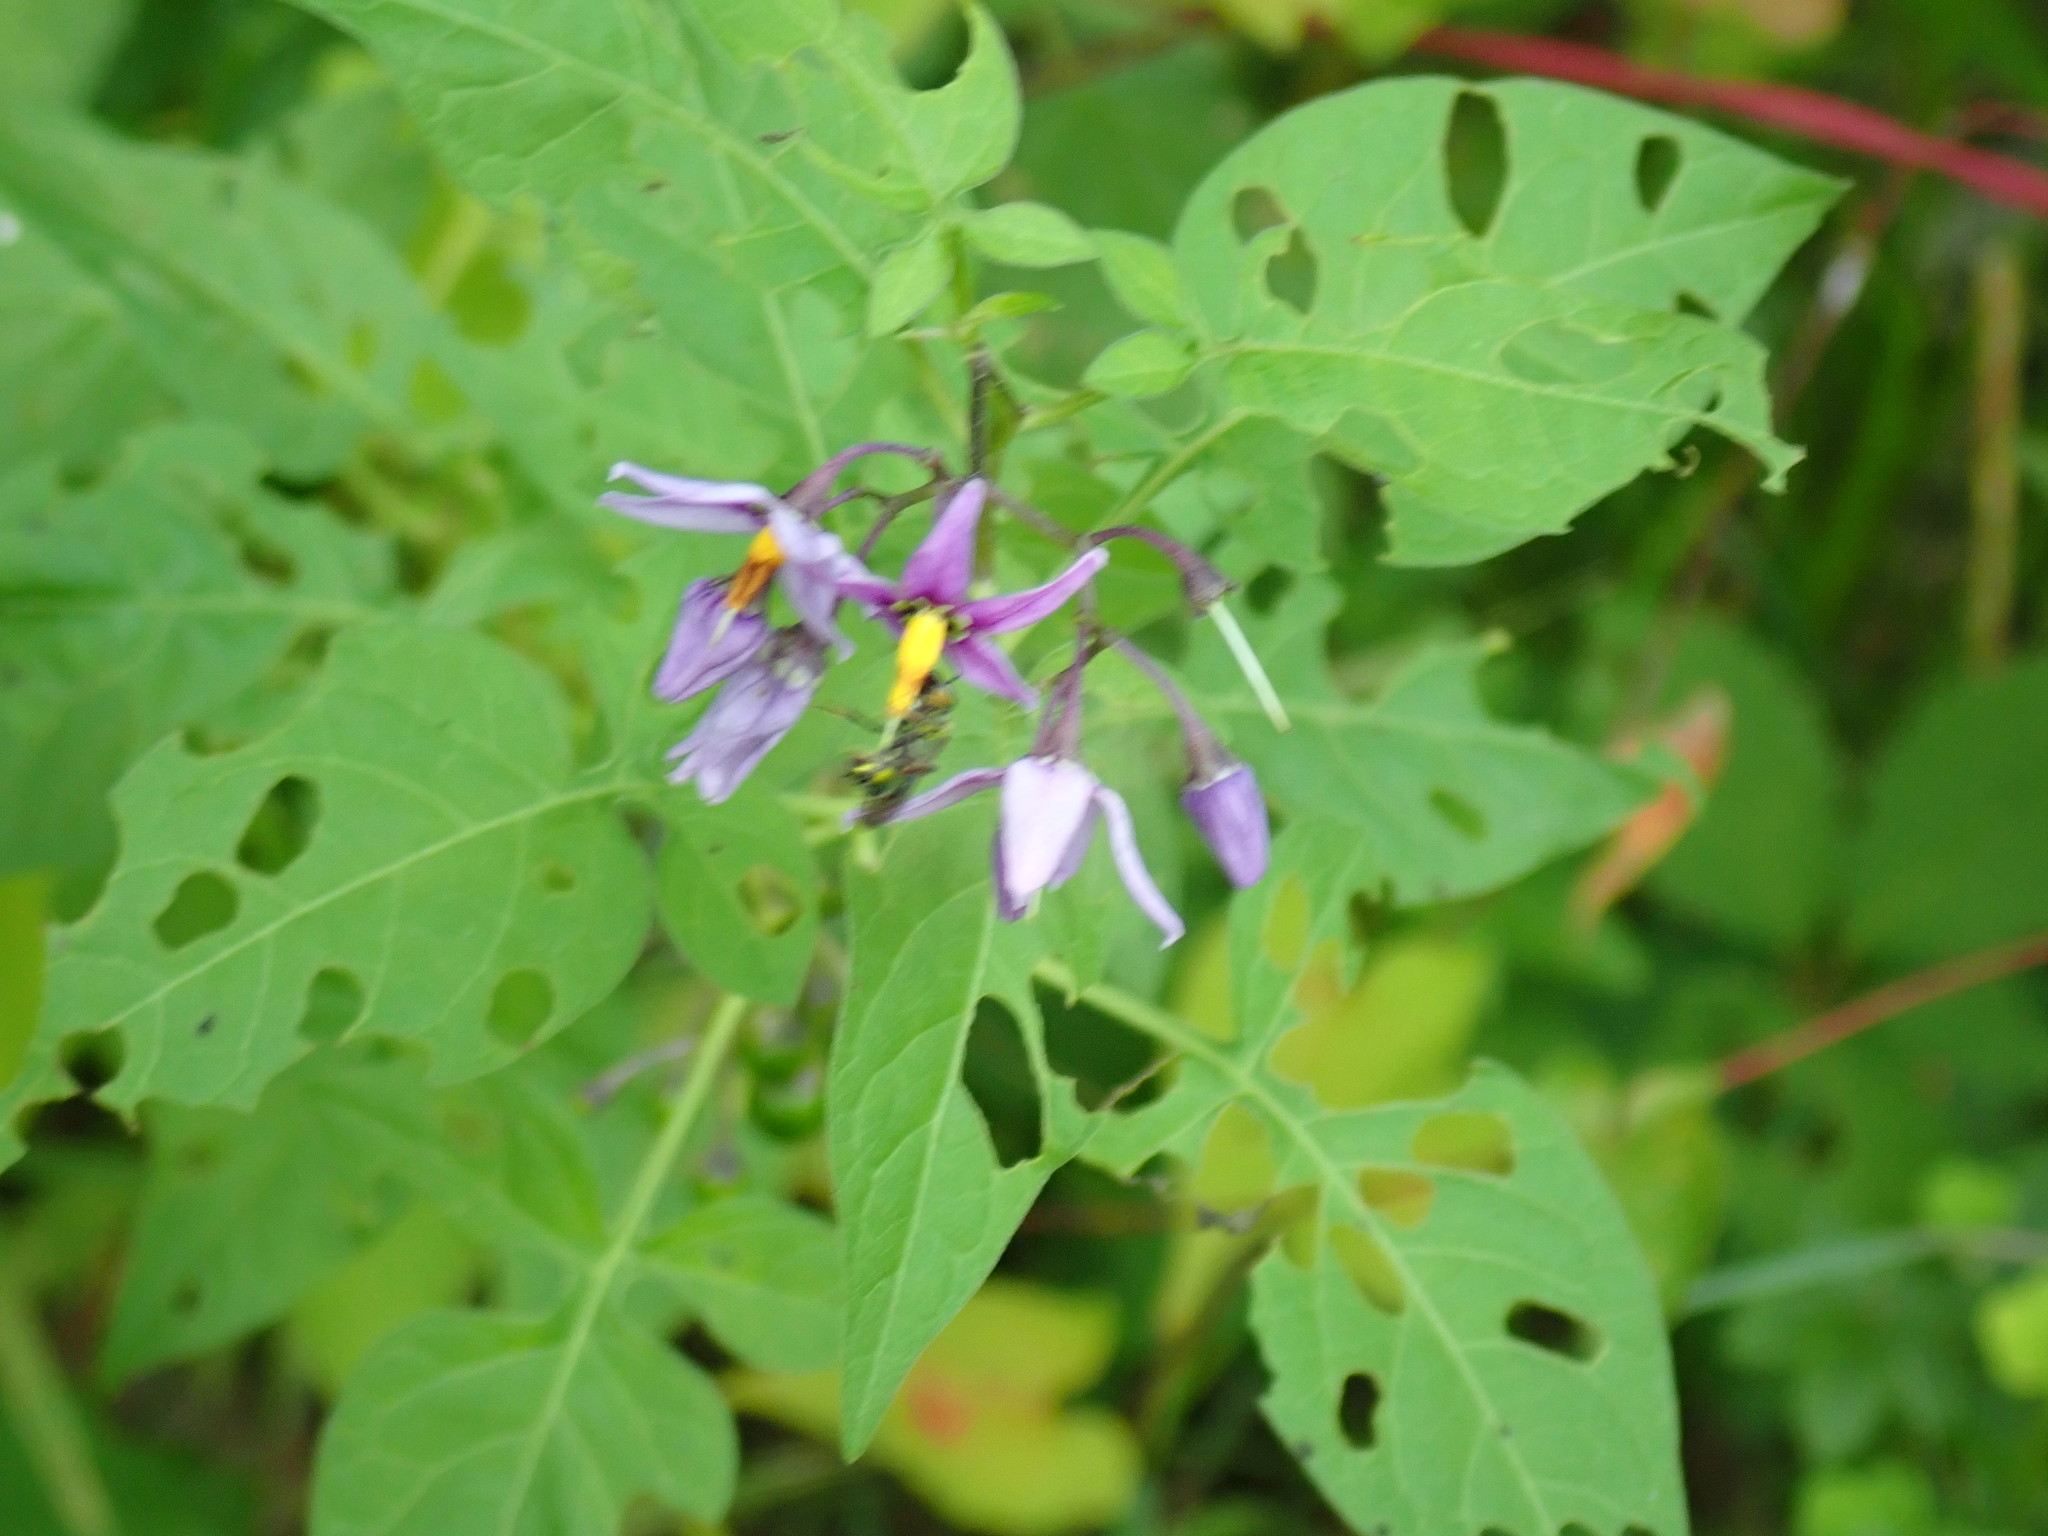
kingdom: Plantae
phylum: Tracheophyta
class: Magnoliopsida
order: Solanales
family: Solanaceae
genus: Solanum
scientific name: Solanum dulcamara
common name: Climbing nightshade
